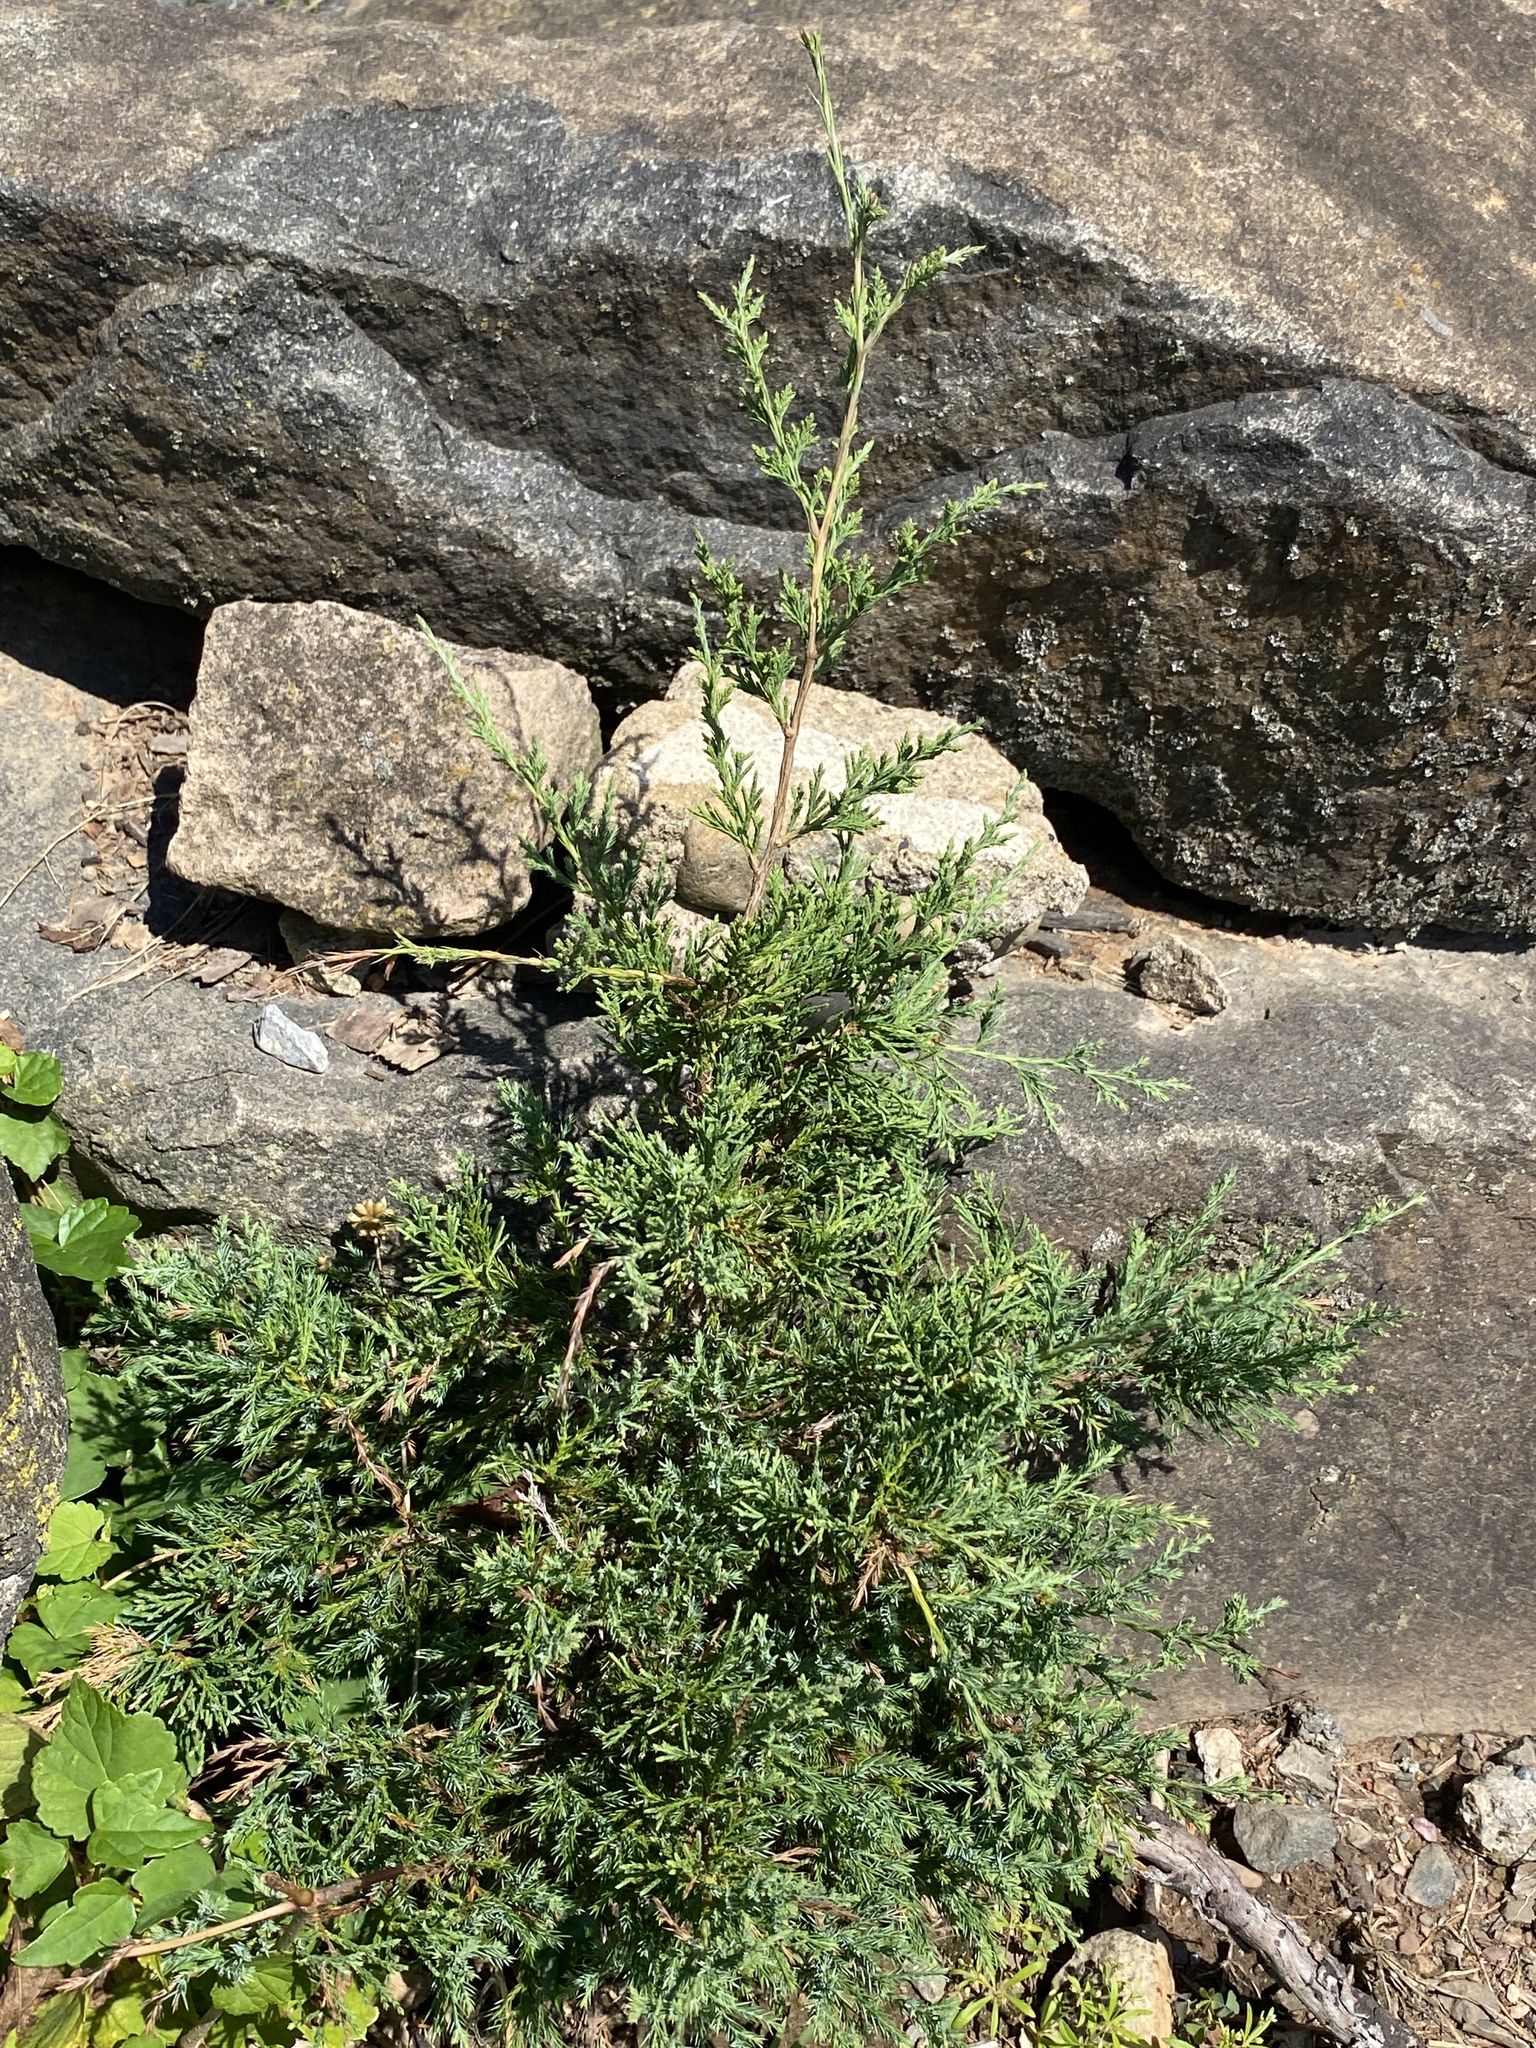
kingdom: Plantae
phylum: Tracheophyta
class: Pinopsida
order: Pinales
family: Cupressaceae
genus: Juniperus
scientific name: Juniperus virginiana
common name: Red juniper
